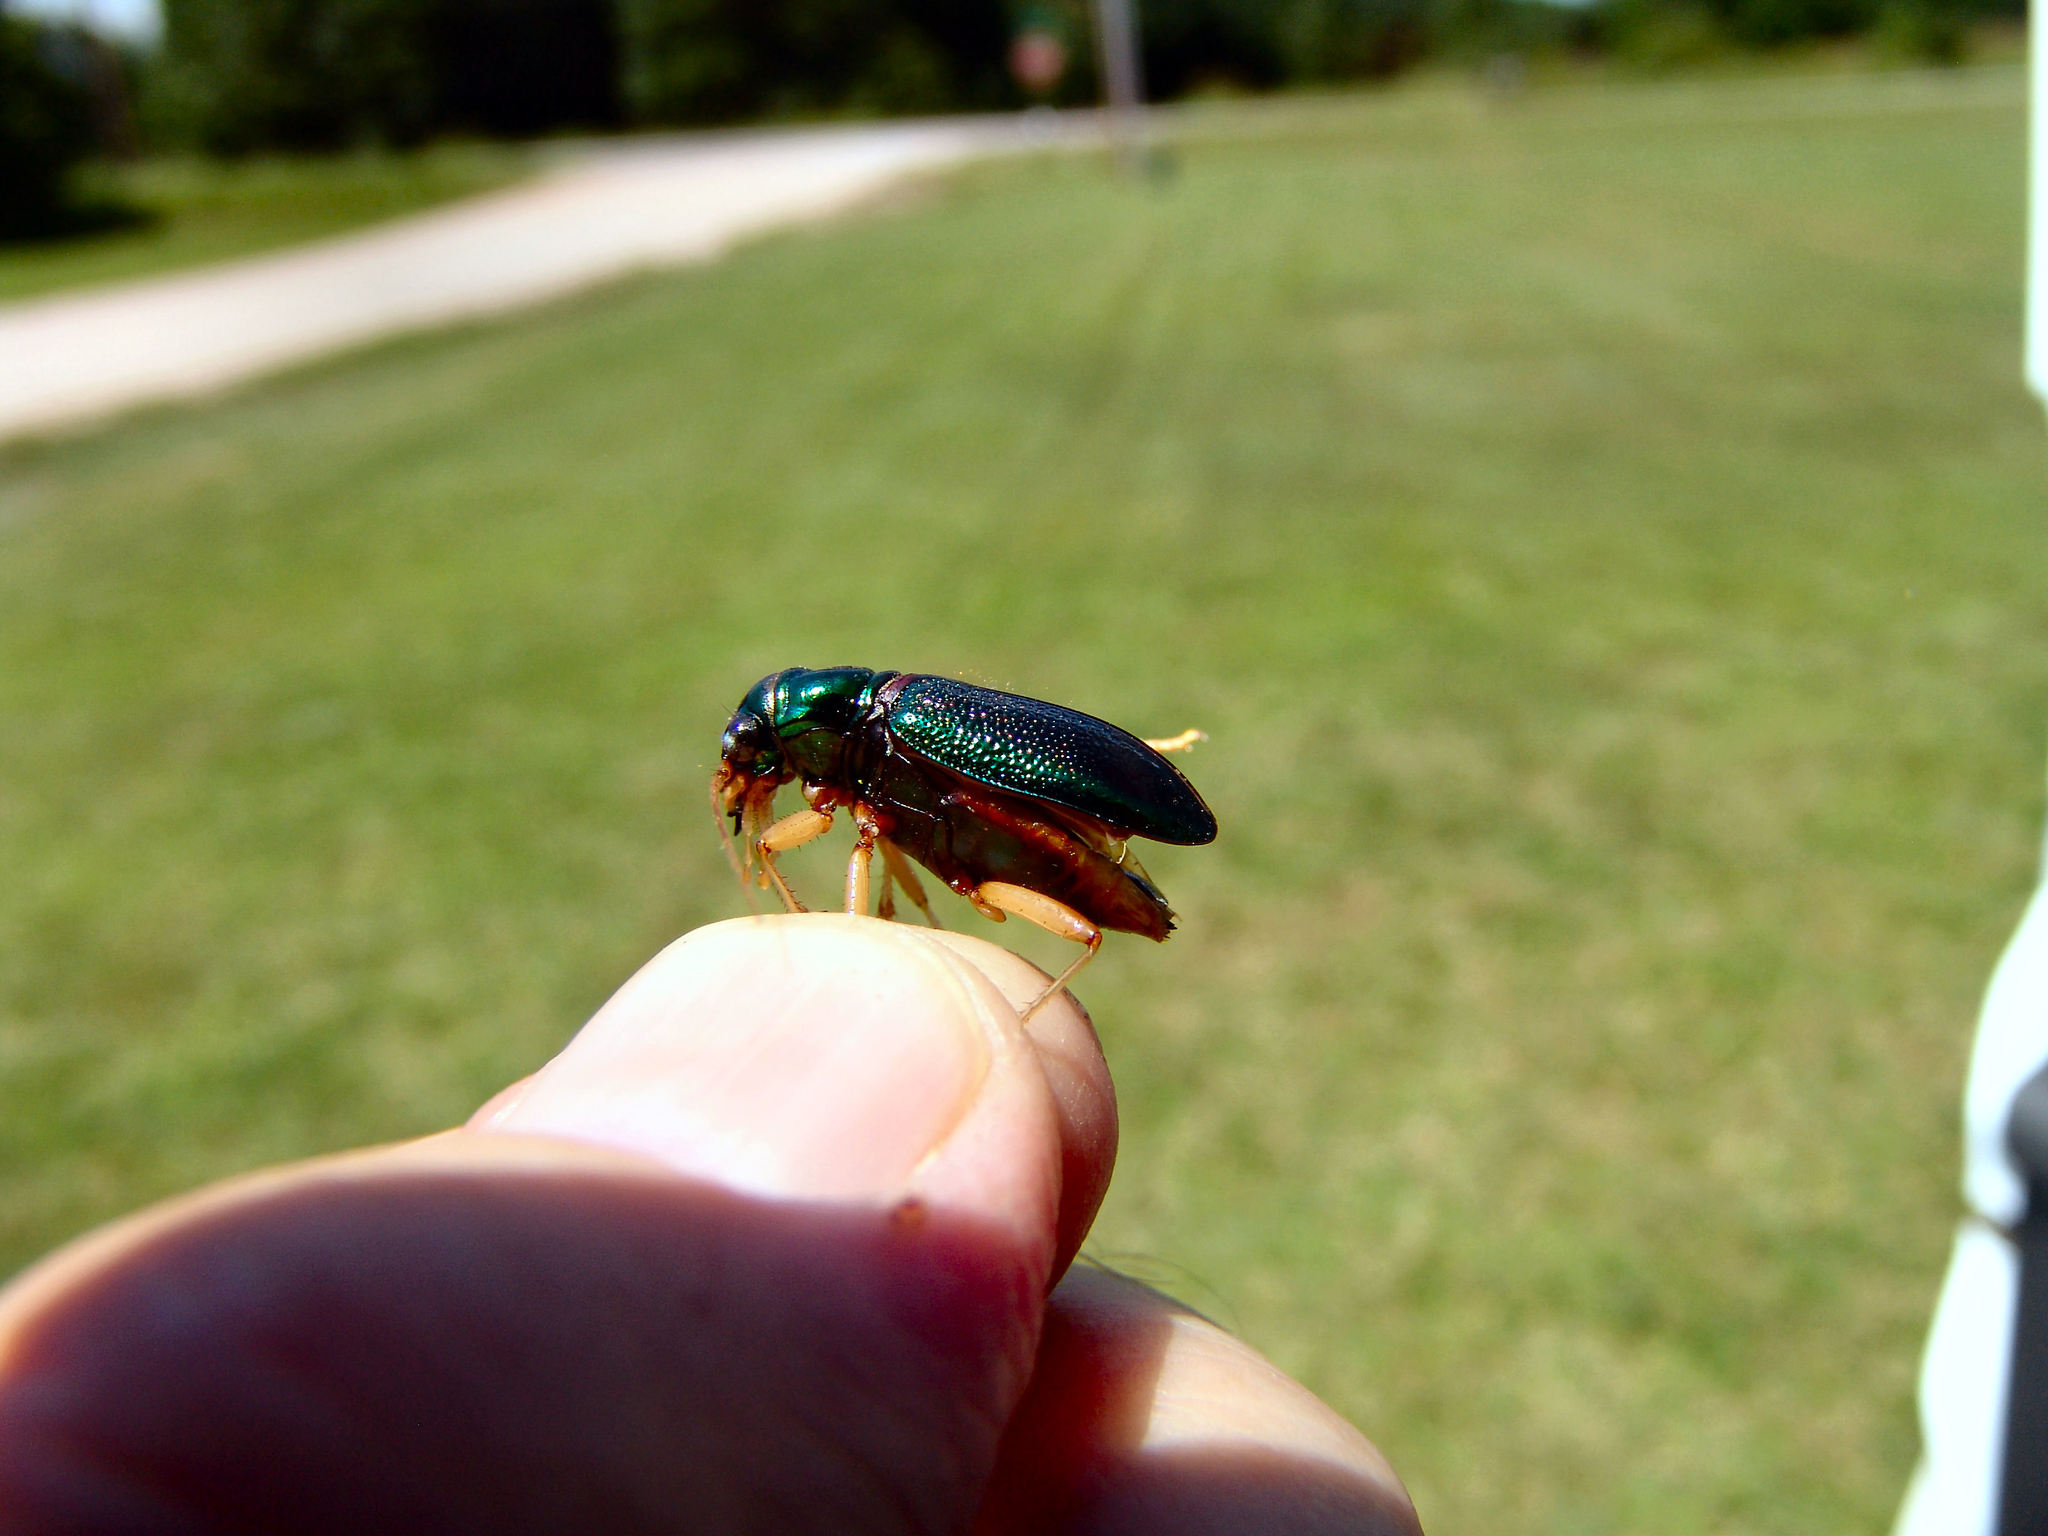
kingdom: Animalia
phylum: Arthropoda
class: Insecta
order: Coleoptera
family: Carabidae
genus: Tetracha
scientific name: Tetracha virginica
